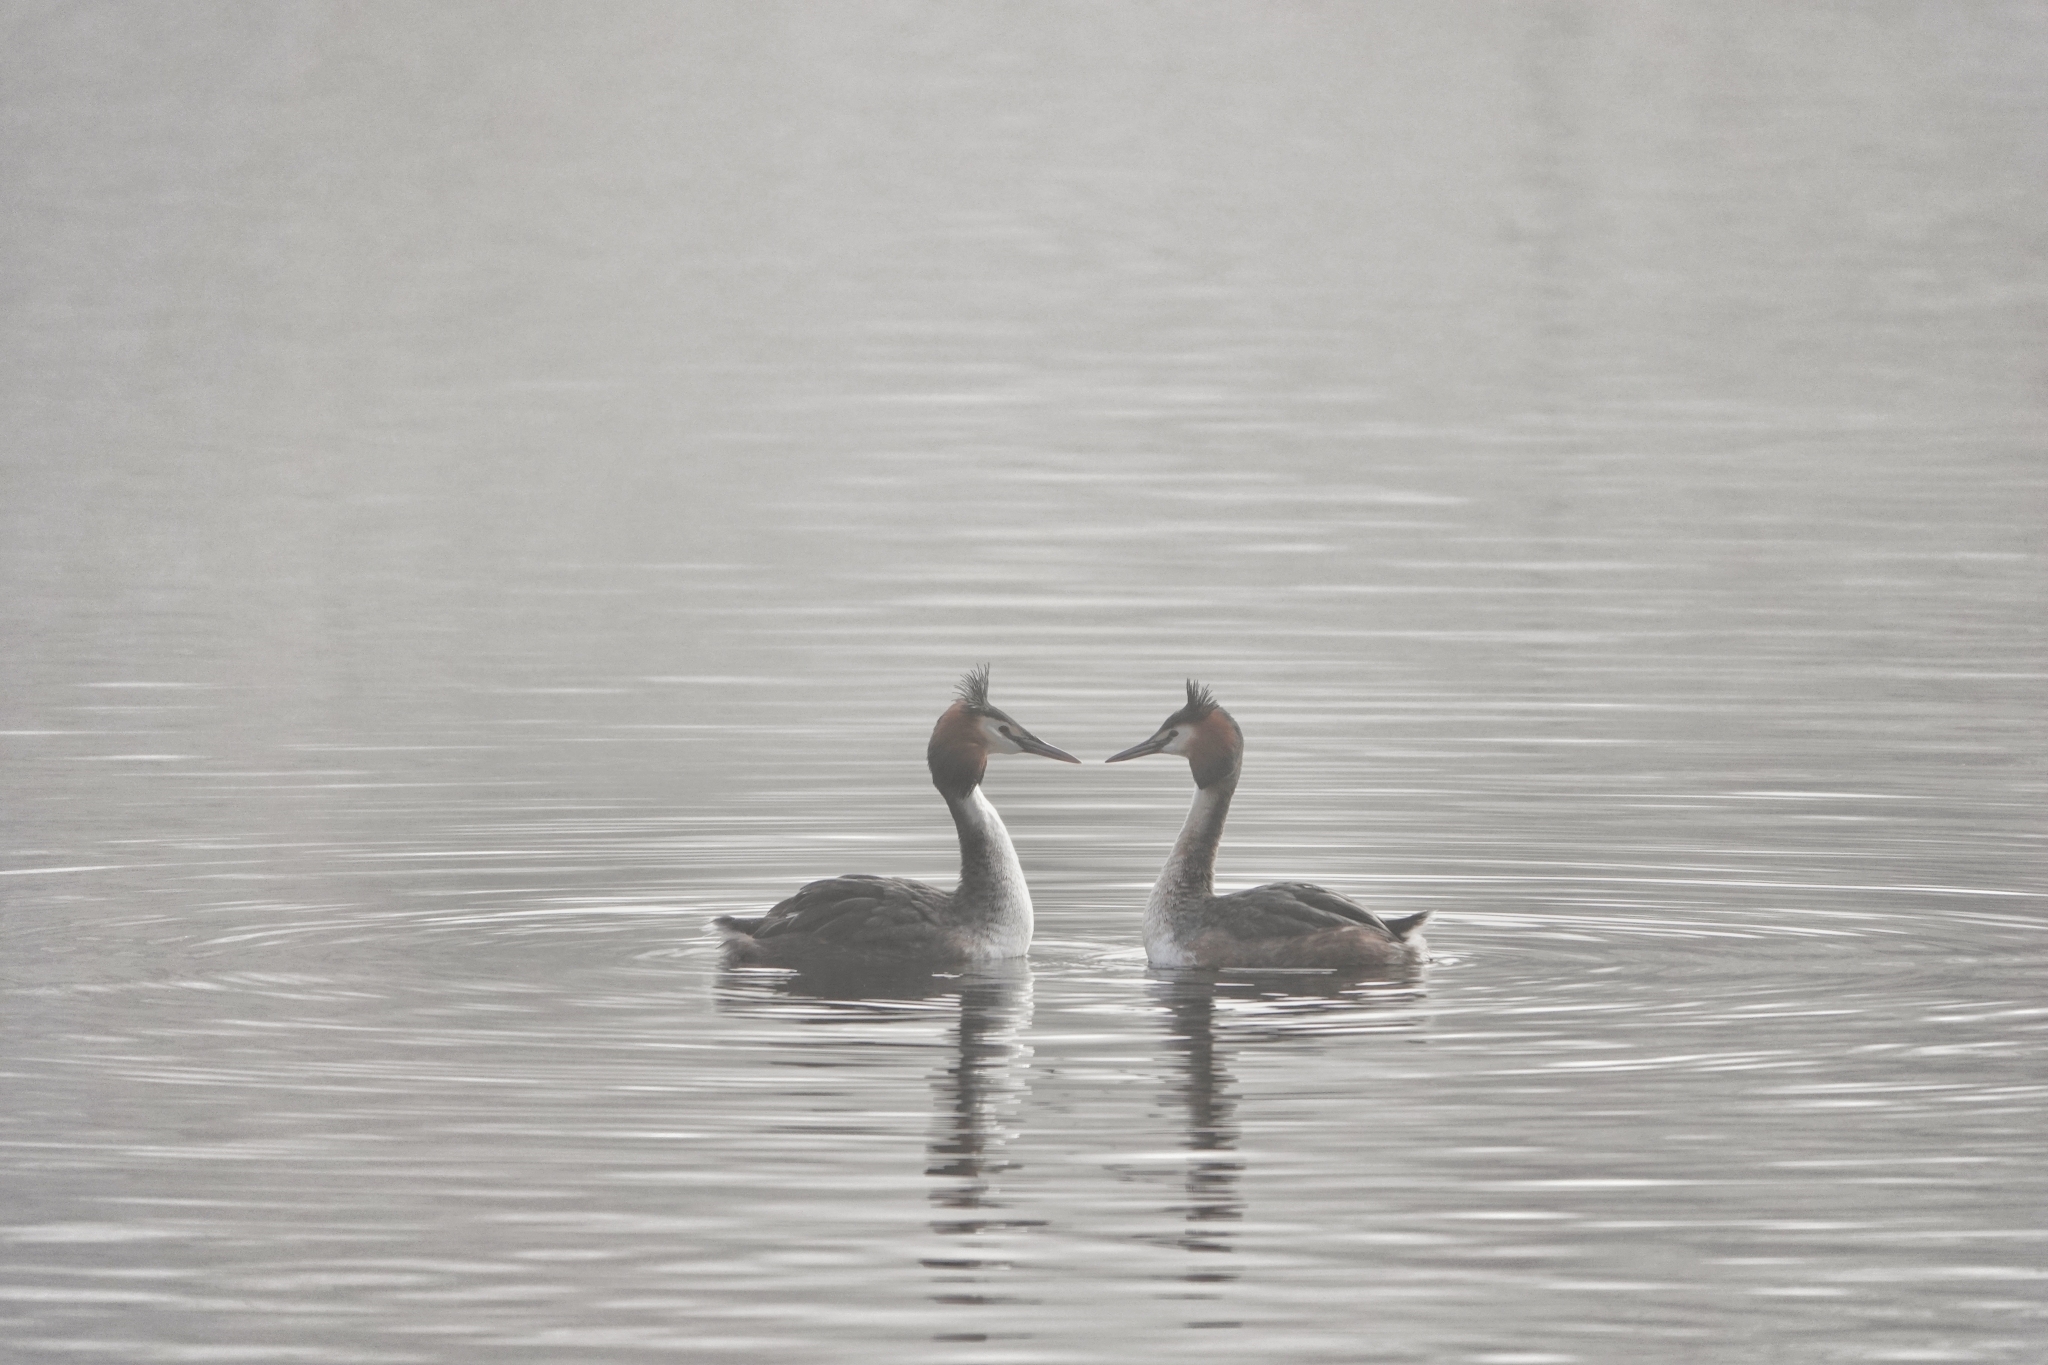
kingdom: Animalia
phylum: Chordata
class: Aves
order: Podicipediformes
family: Podicipedidae
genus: Podiceps
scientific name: Podiceps cristatus
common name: Great crested grebe
